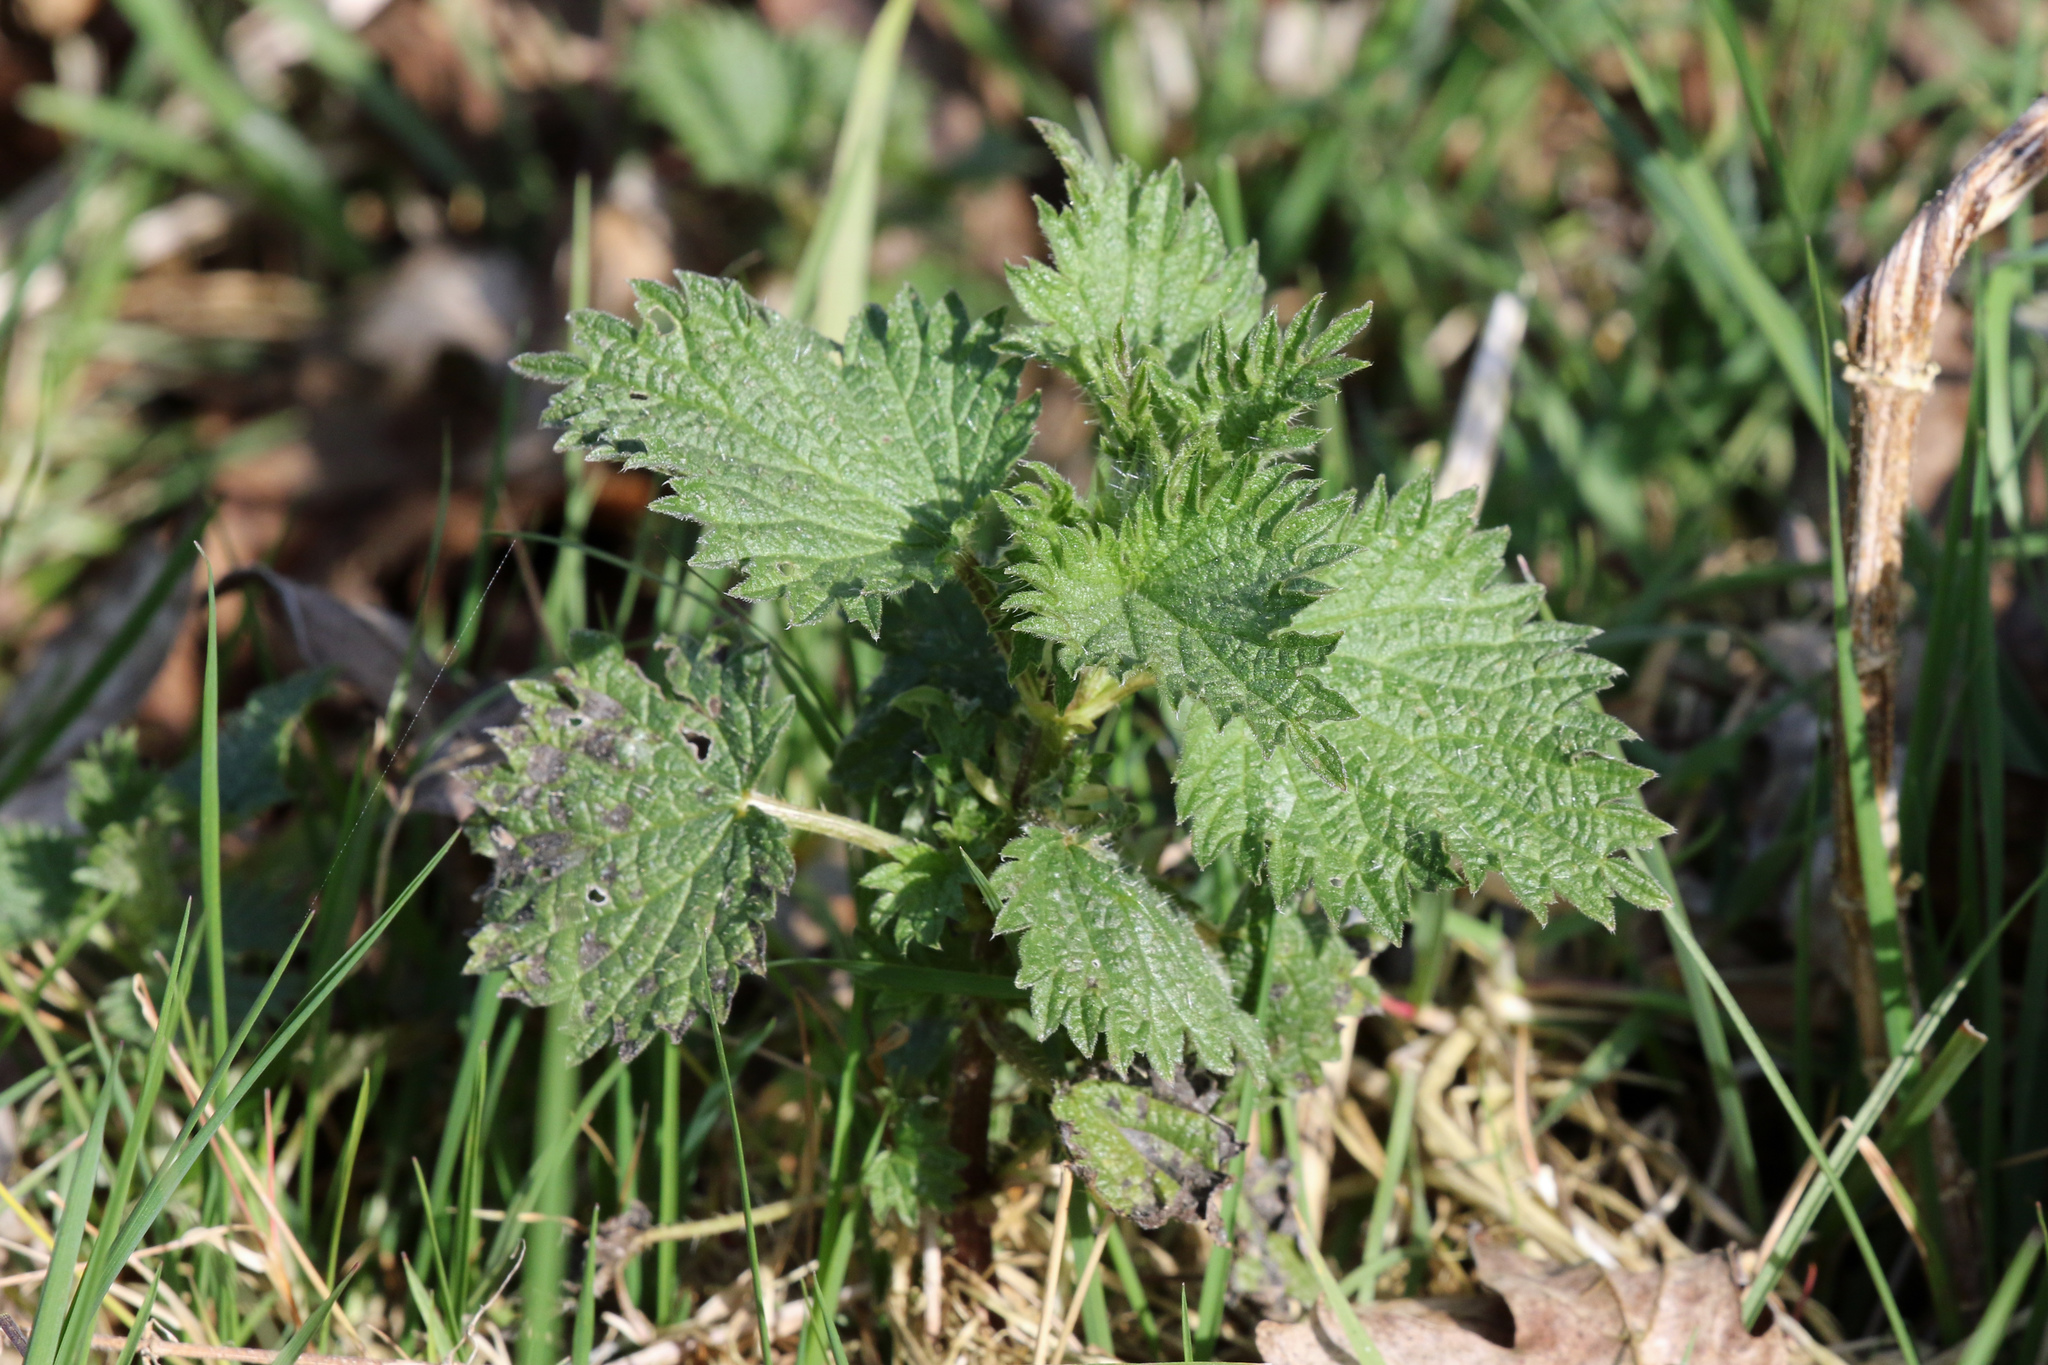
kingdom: Plantae
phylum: Tracheophyta
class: Magnoliopsida
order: Rosales
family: Urticaceae
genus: Urtica
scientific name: Urtica dioica
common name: Common nettle
